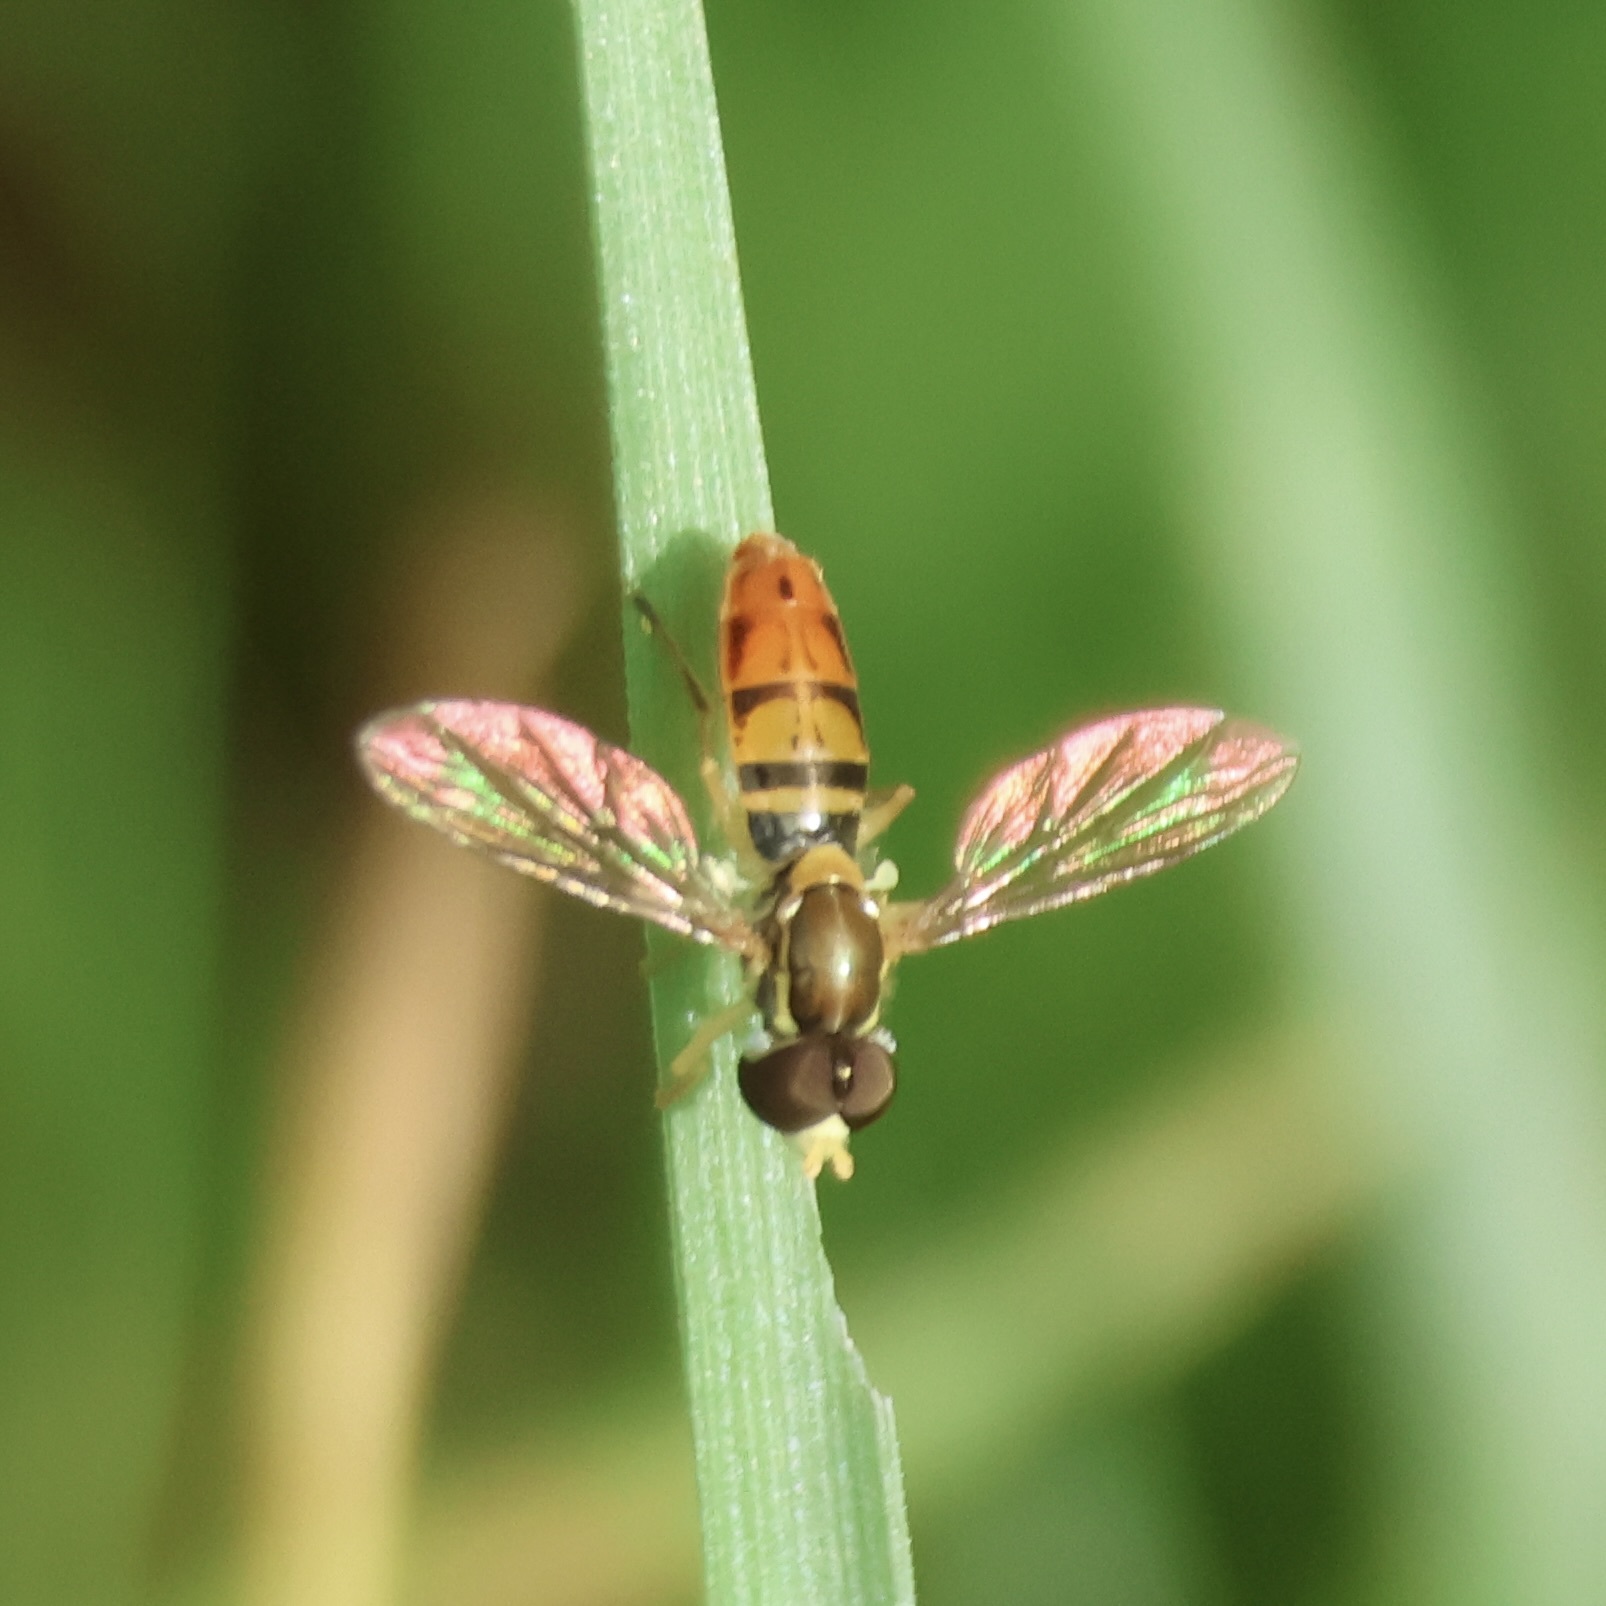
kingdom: Animalia
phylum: Arthropoda
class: Insecta
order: Diptera
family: Syrphidae
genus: Toxomerus
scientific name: Toxomerus marginatus
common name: Syrphid fly
